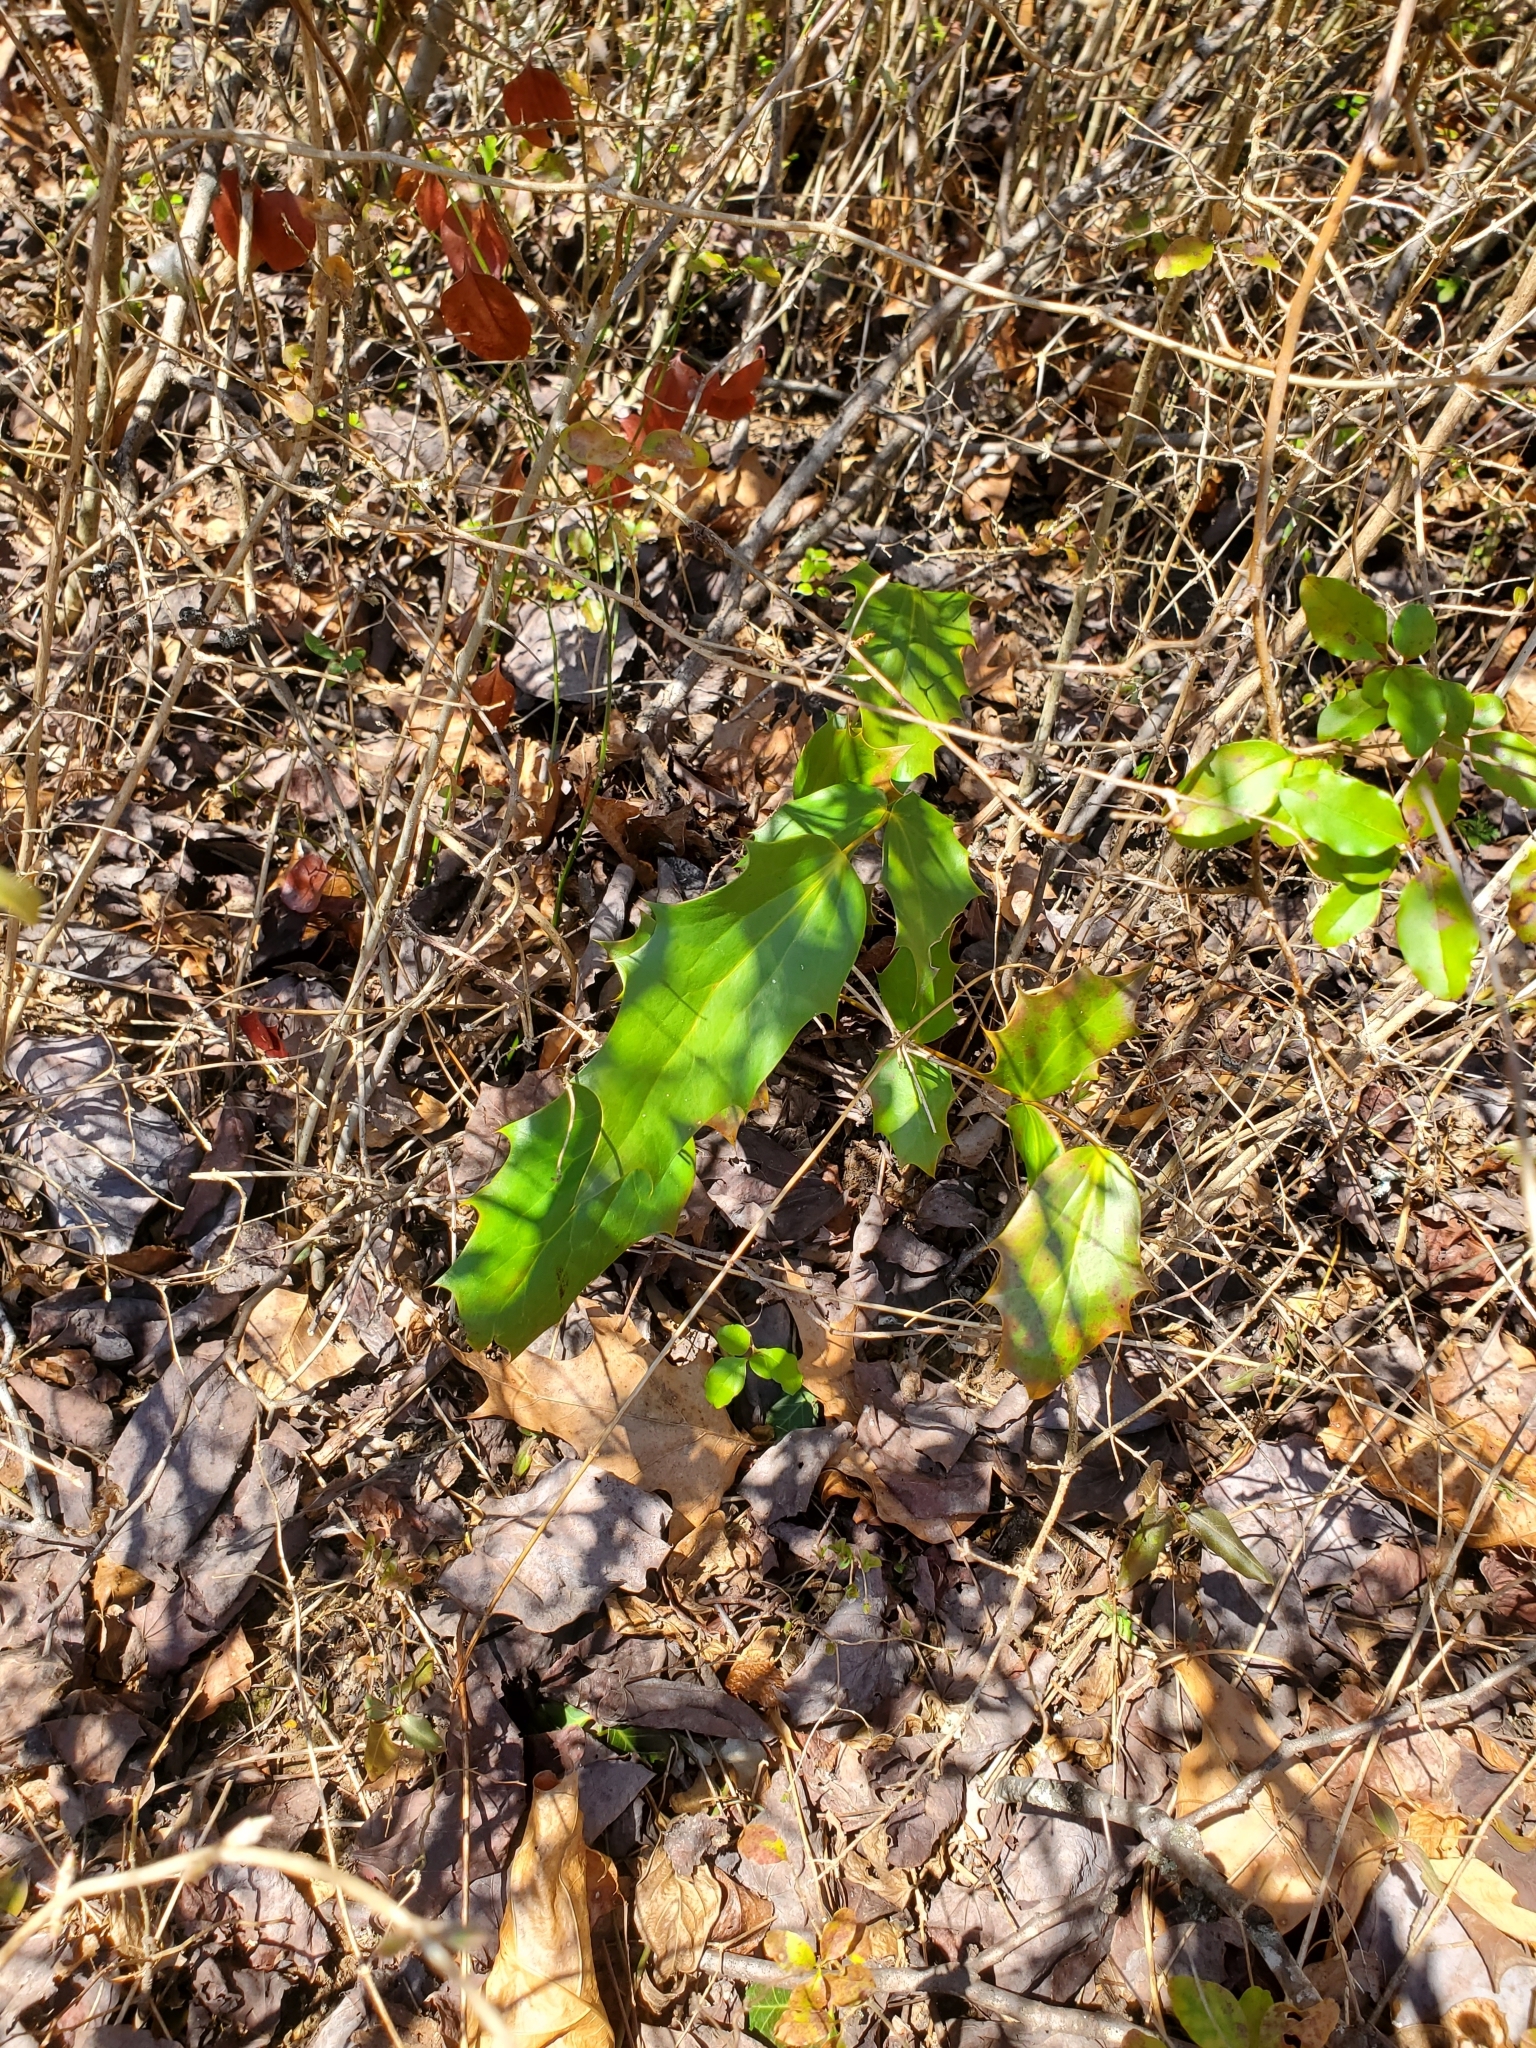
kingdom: Plantae
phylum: Tracheophyta
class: Magnoliopsida
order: Ranunculales
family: Berberidaceae
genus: Mahonia
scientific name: Mahonia bealei
